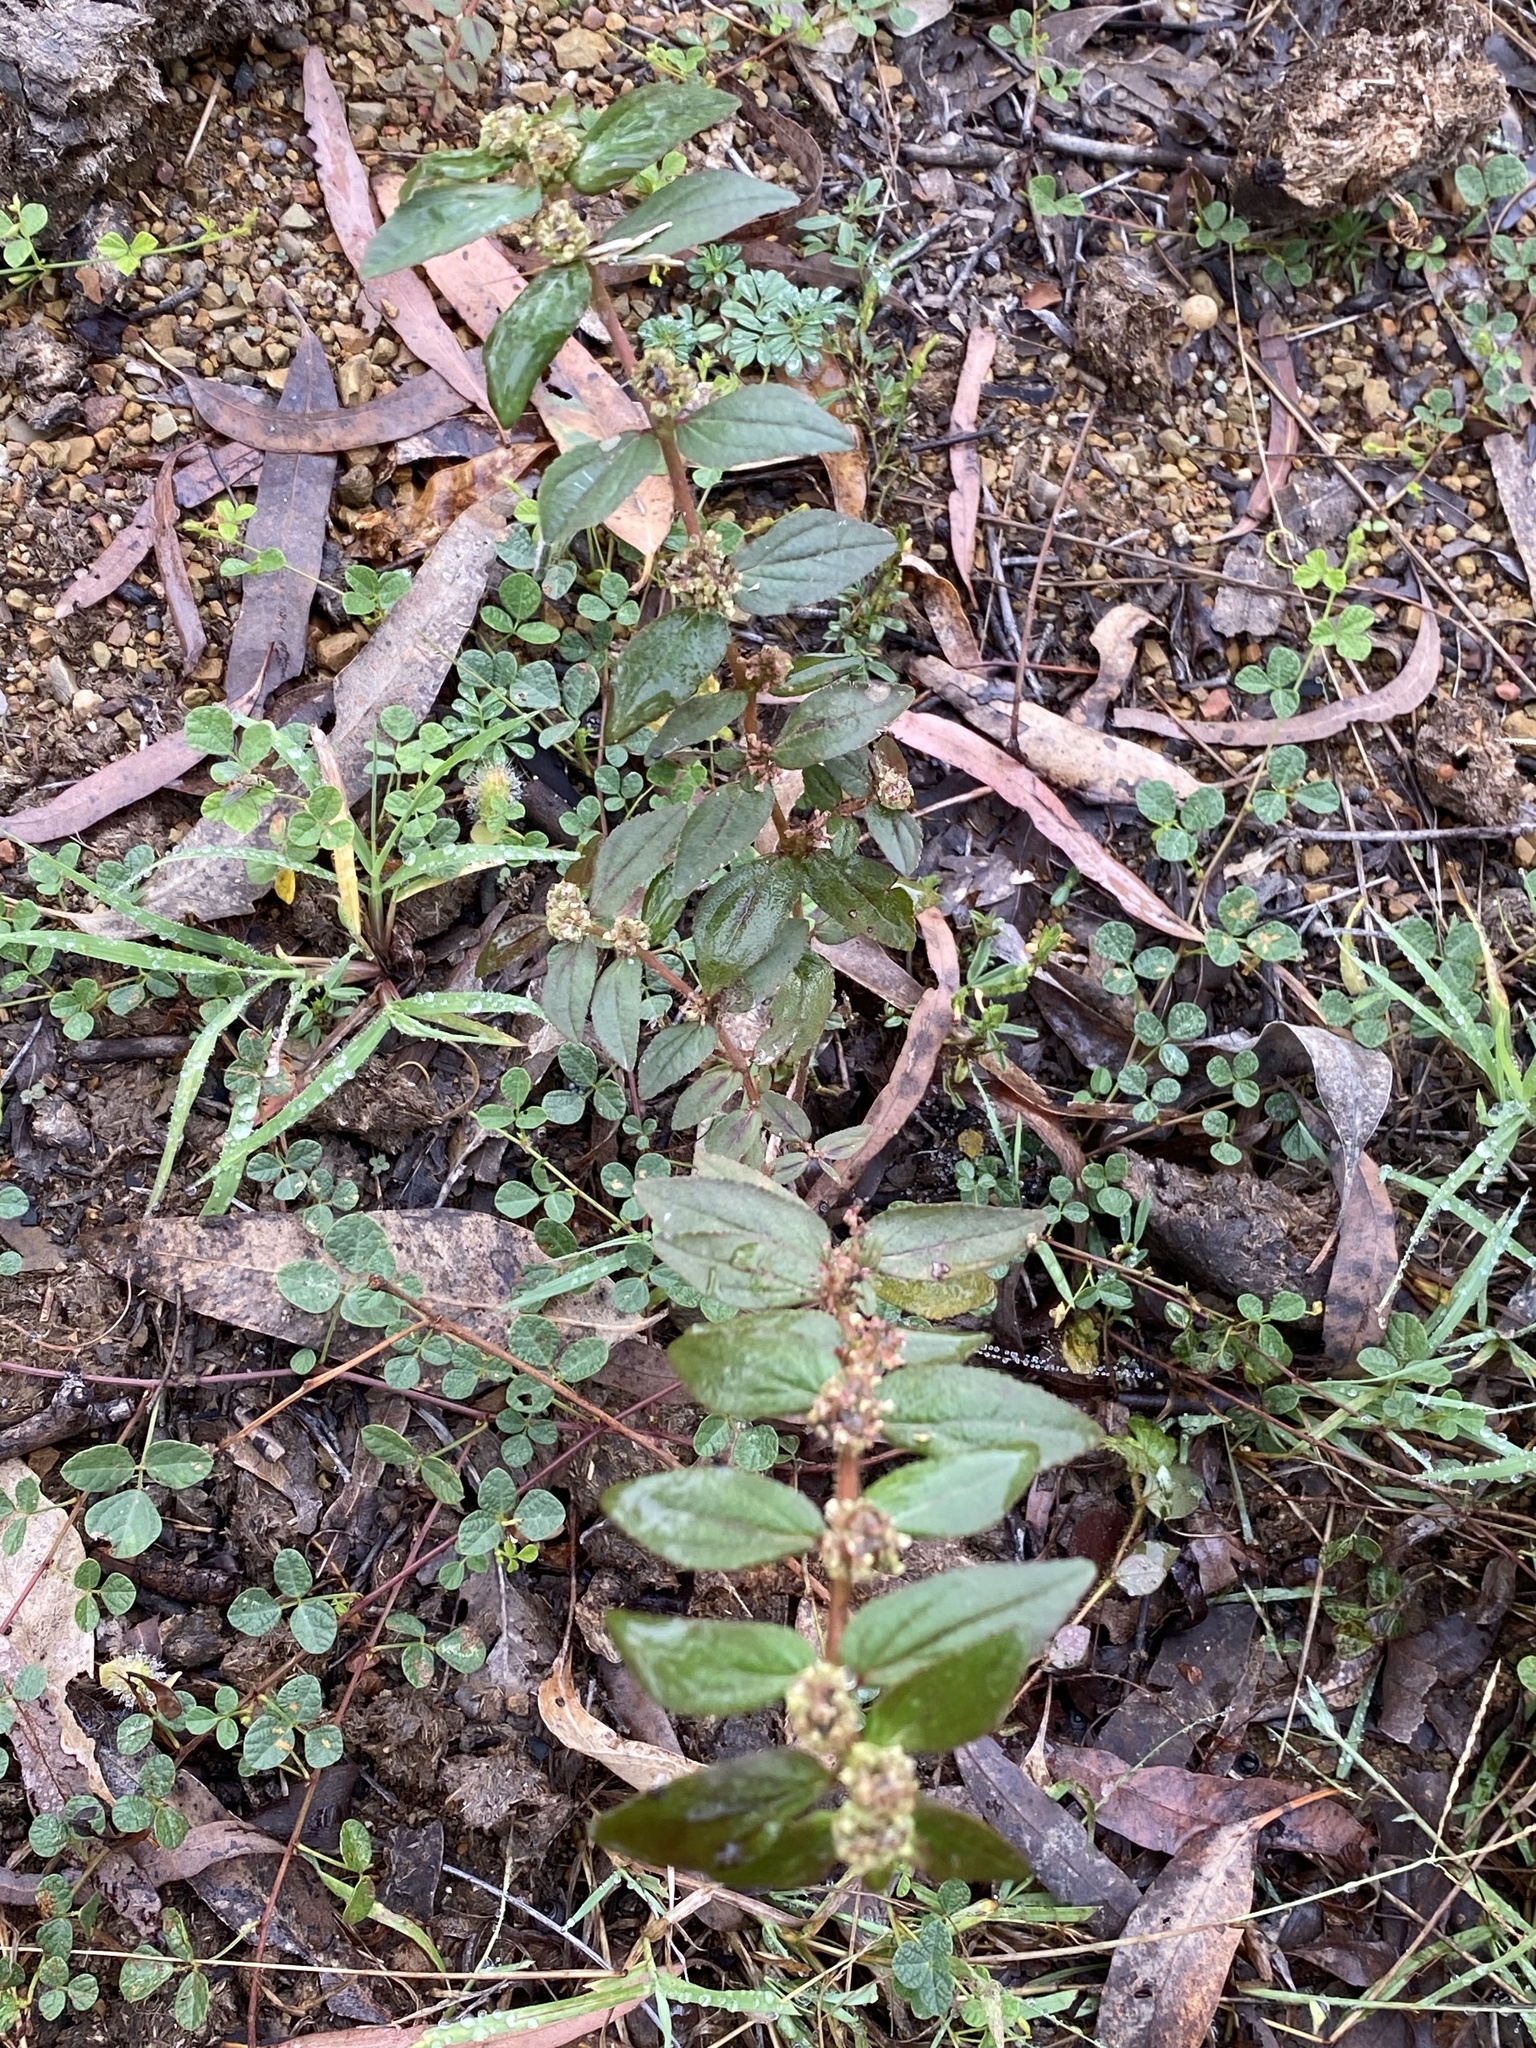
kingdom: Plantae
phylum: Tracheophyta
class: Magnoliopsida
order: Malpighiales
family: Euphorbiaceae
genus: Euphorbia
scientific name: Euphorbia hirta
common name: Pillpod sandmat
